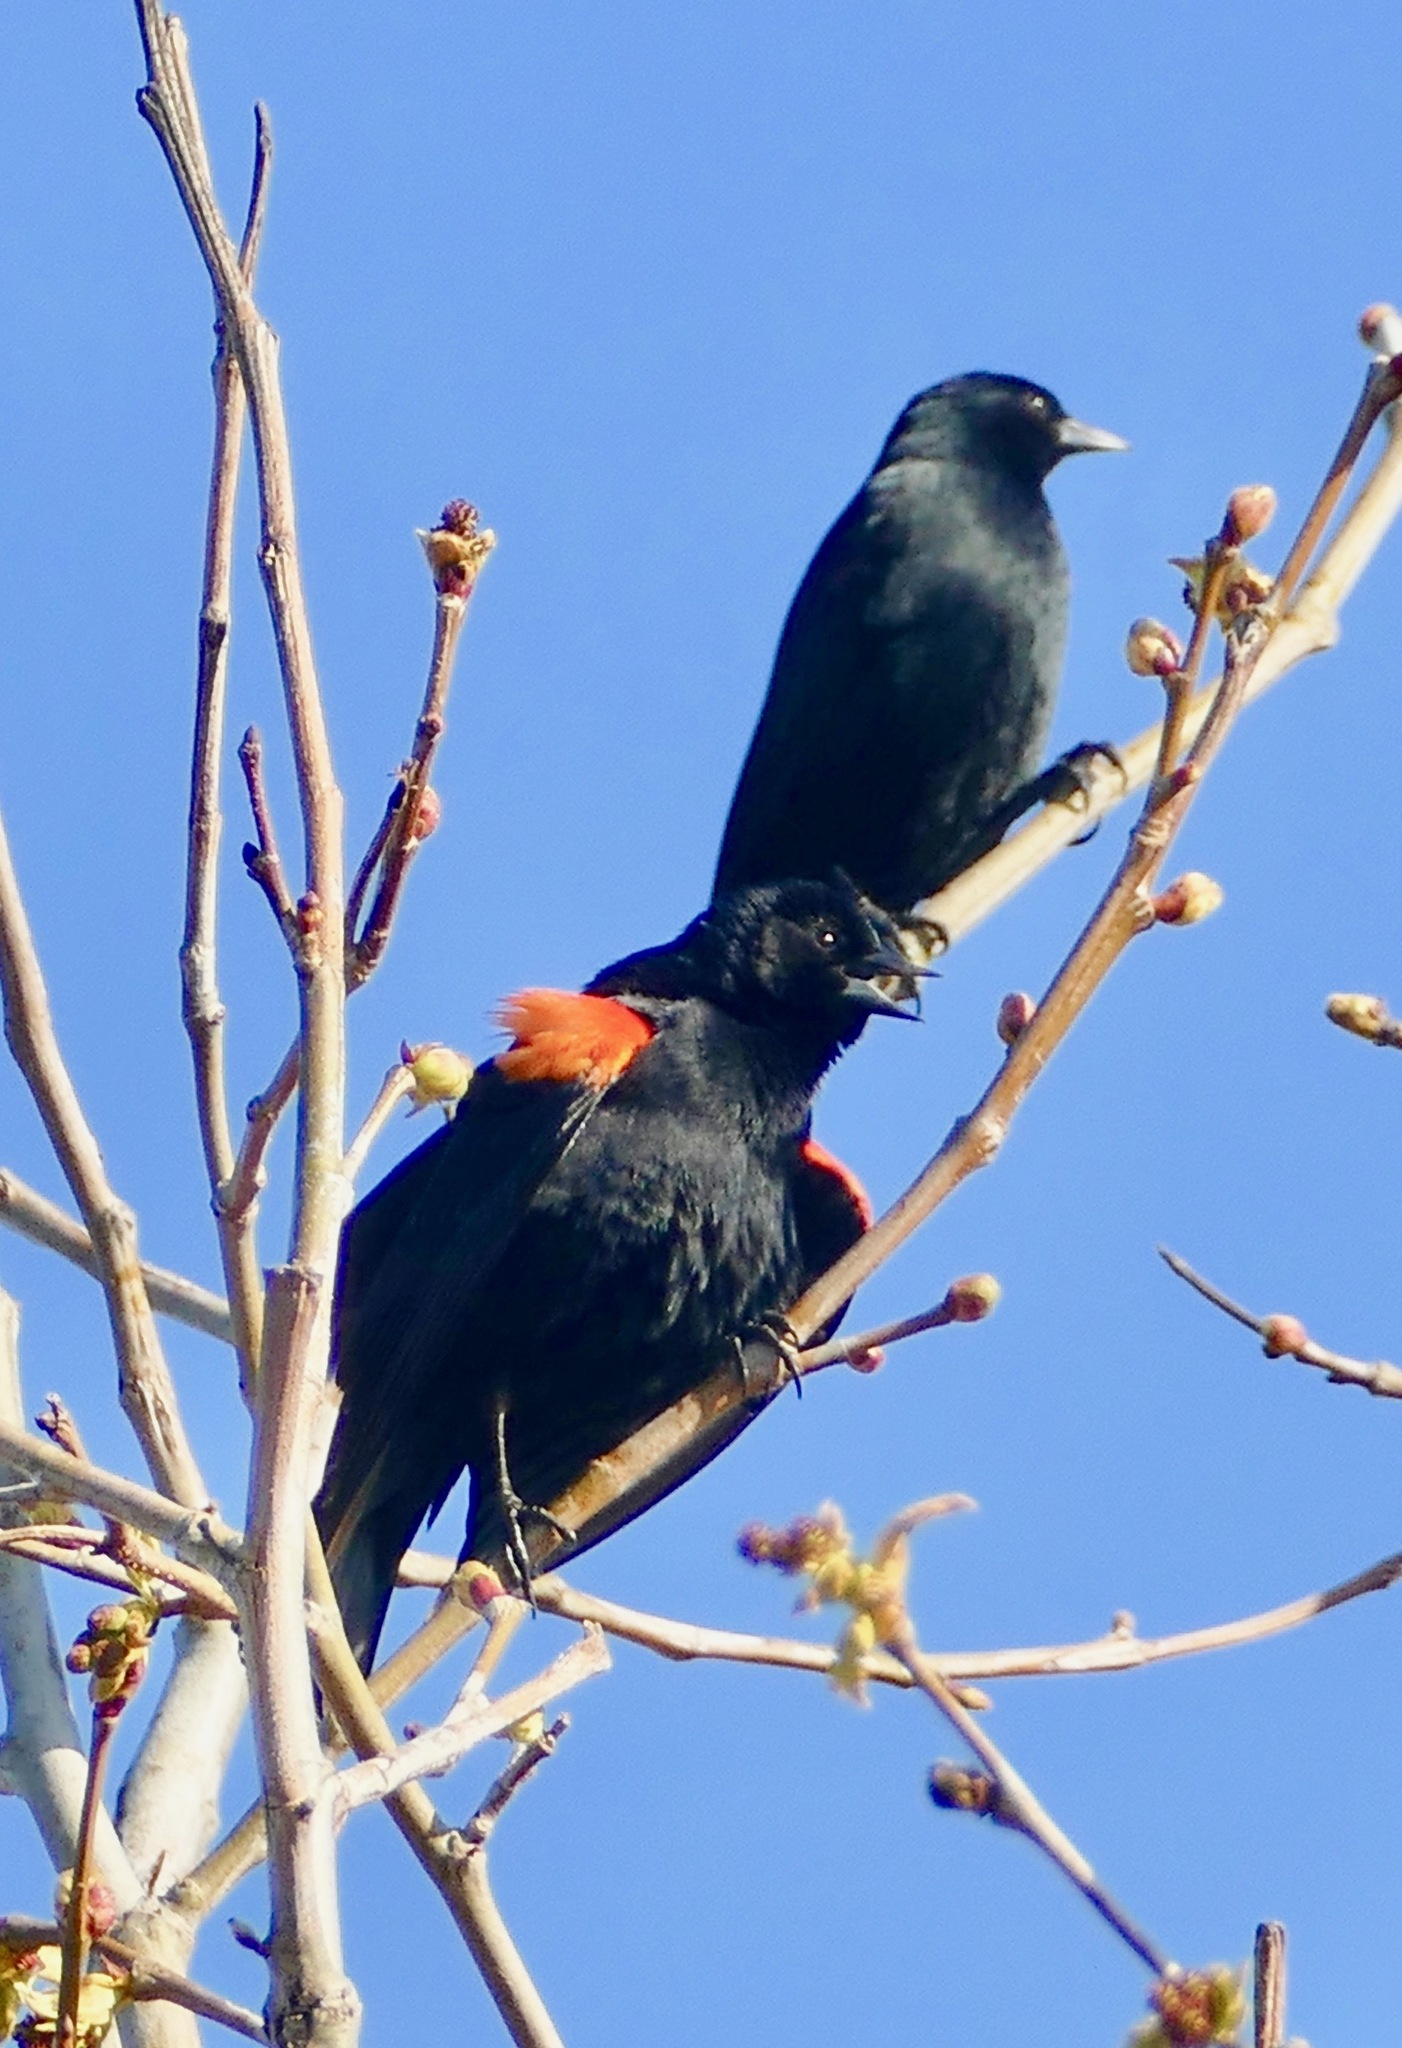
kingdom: Animalia
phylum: Chordata
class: Aves
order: Passeriformes
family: Icteridae
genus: Agelaius
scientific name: Agelaius phoeniceus
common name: Red-winged blackbird
